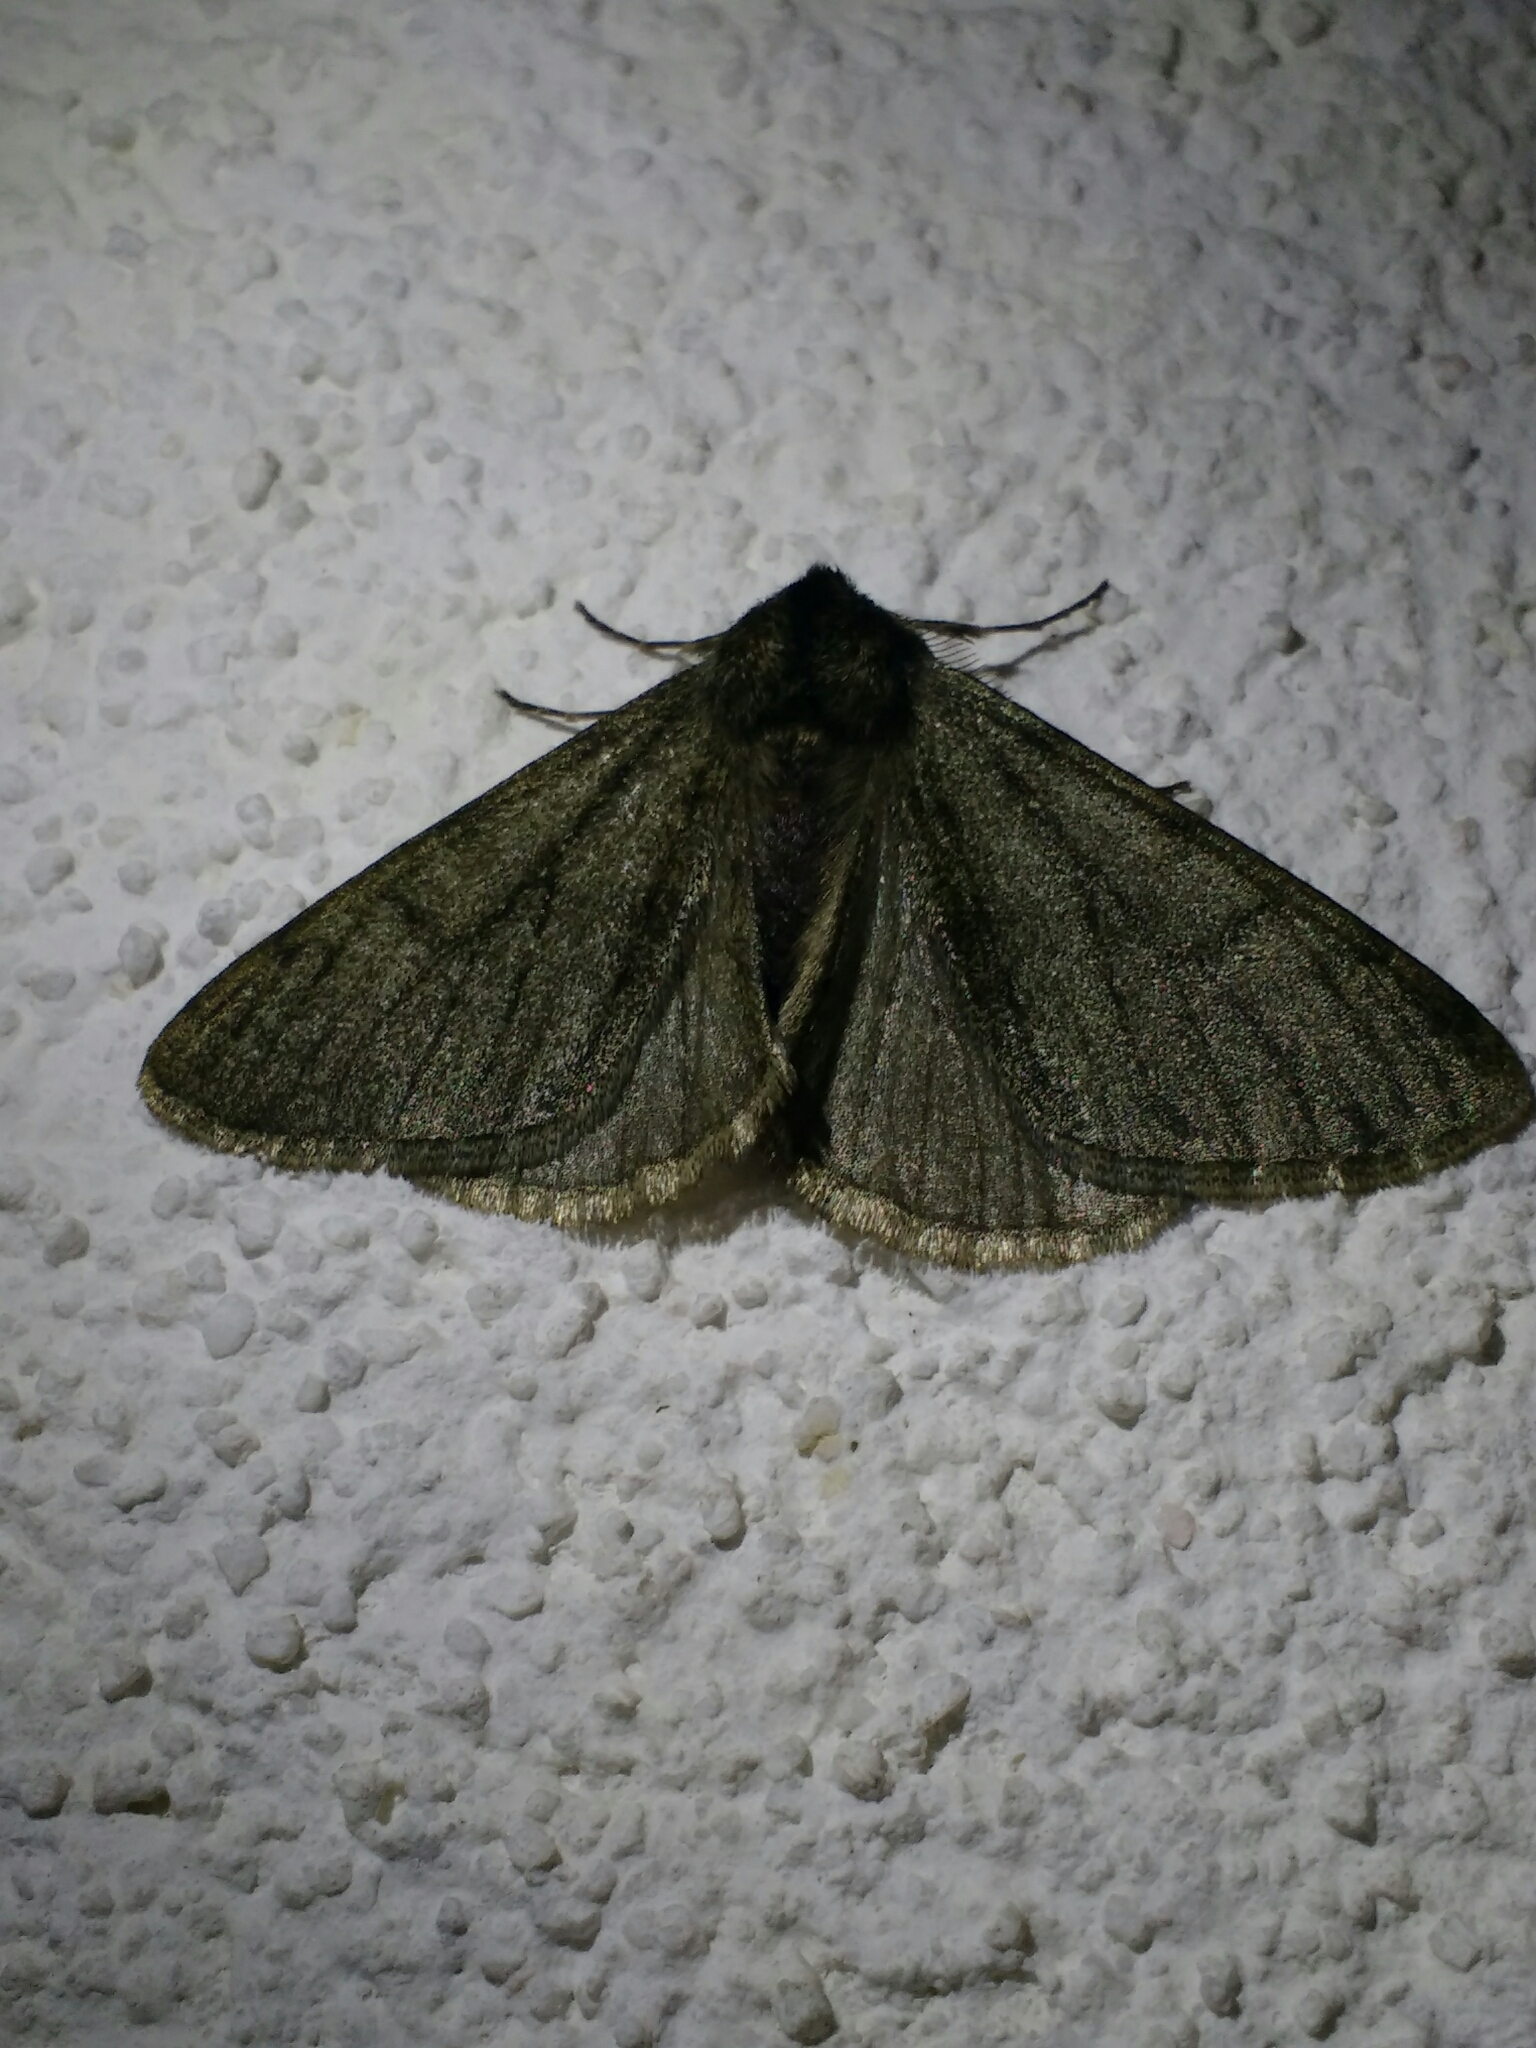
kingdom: Animalia
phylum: Arthropoda
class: Insecta
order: Lepidoptera
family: Geometridae
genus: Phigalia
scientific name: Phigalia pilosaria
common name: Pale brindled beauty
